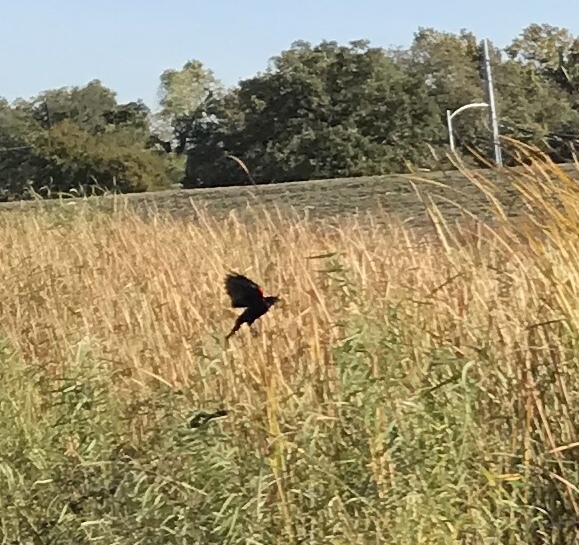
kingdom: Animalia
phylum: Chordata
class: Aves
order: Passeriformes
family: Icteridae
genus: Agelaius
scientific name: Agelaius phoeniceus
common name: Red-winged blackbird
